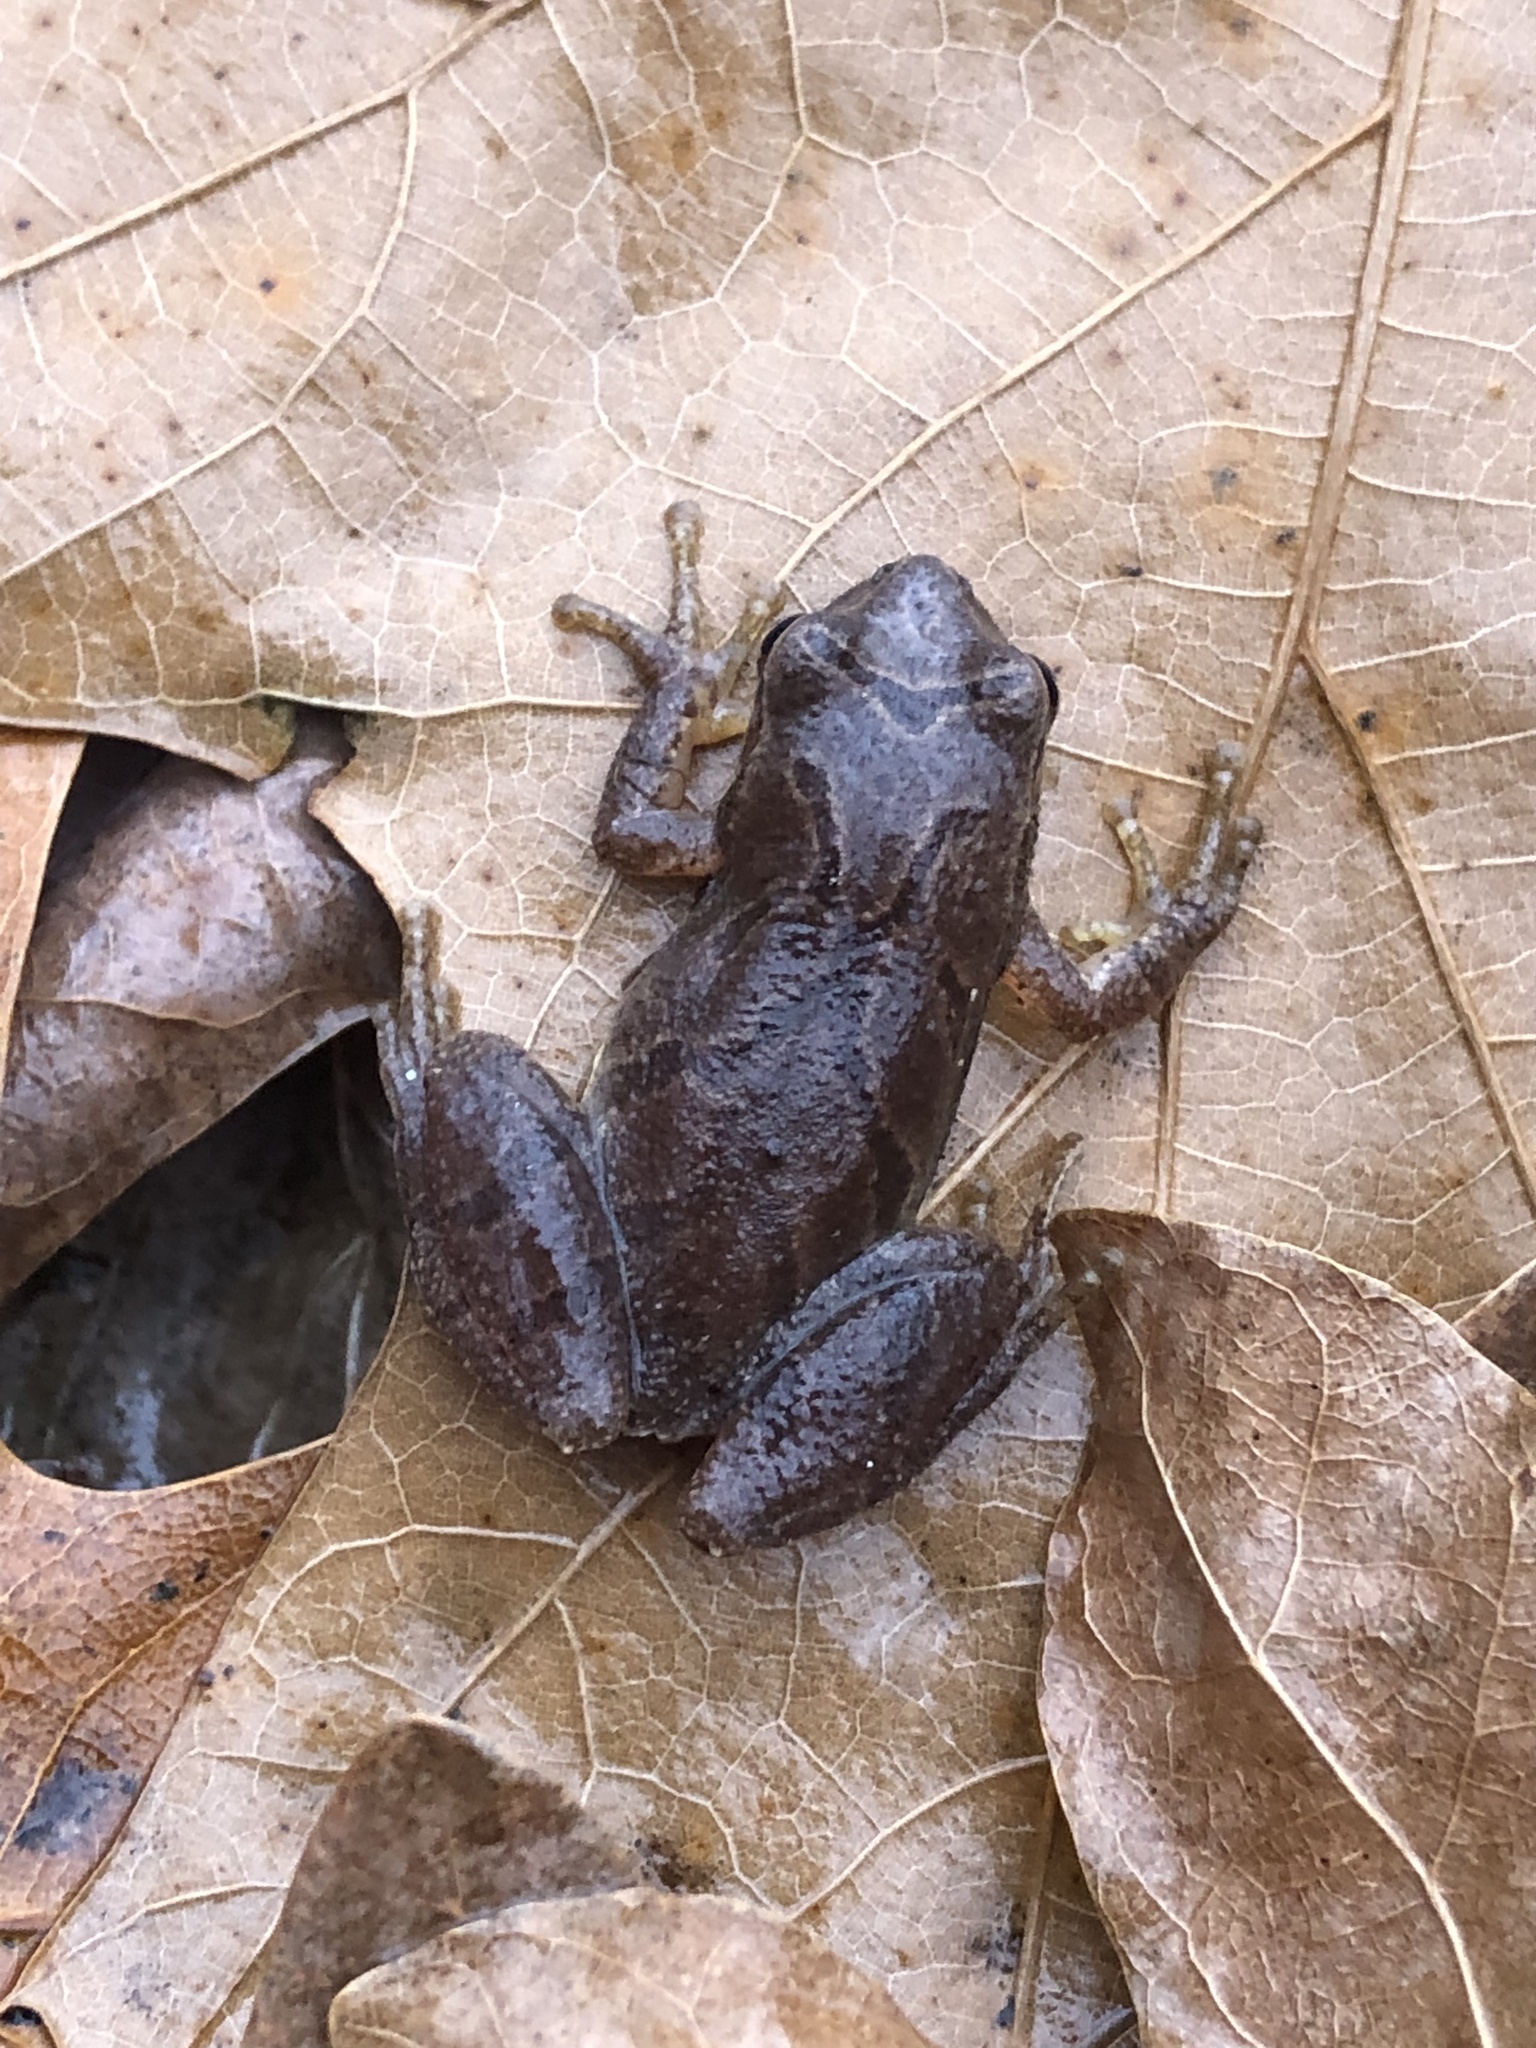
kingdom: Animalia
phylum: Chordata
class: Amphibia
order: Anura
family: Hylidae
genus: Pseudacris
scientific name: Pseudacris crucifer
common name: Spring peeper
